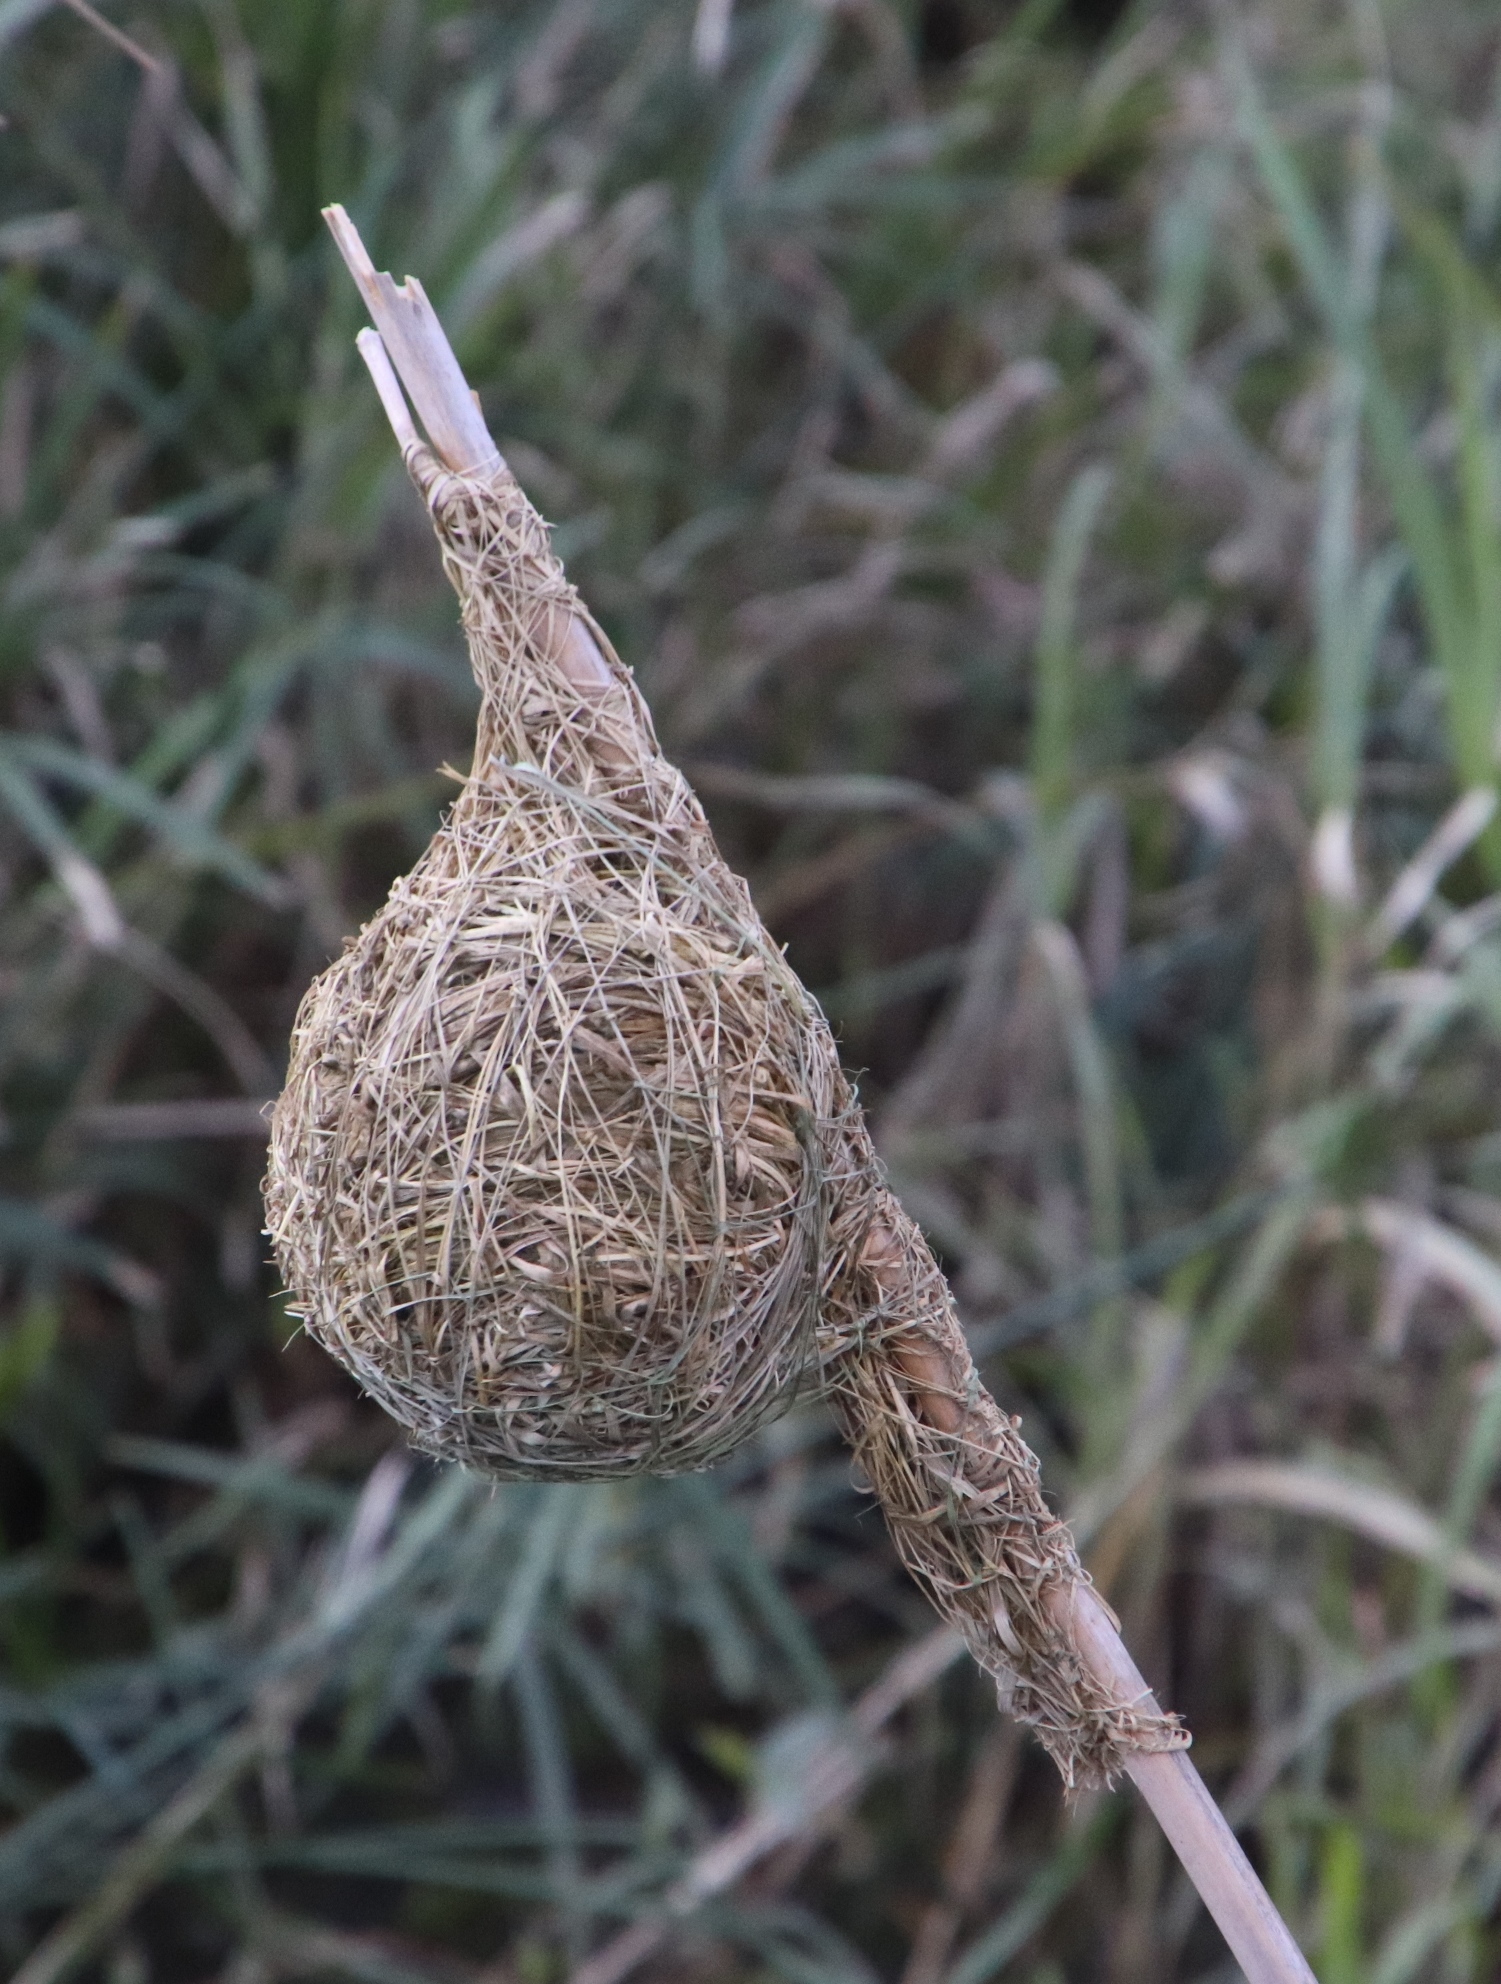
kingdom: Animalia
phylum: Chordata
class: Aves
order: Passeriformes
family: Ploceidae
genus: Ploceus
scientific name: Ploceus capensis
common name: Cape weaver
